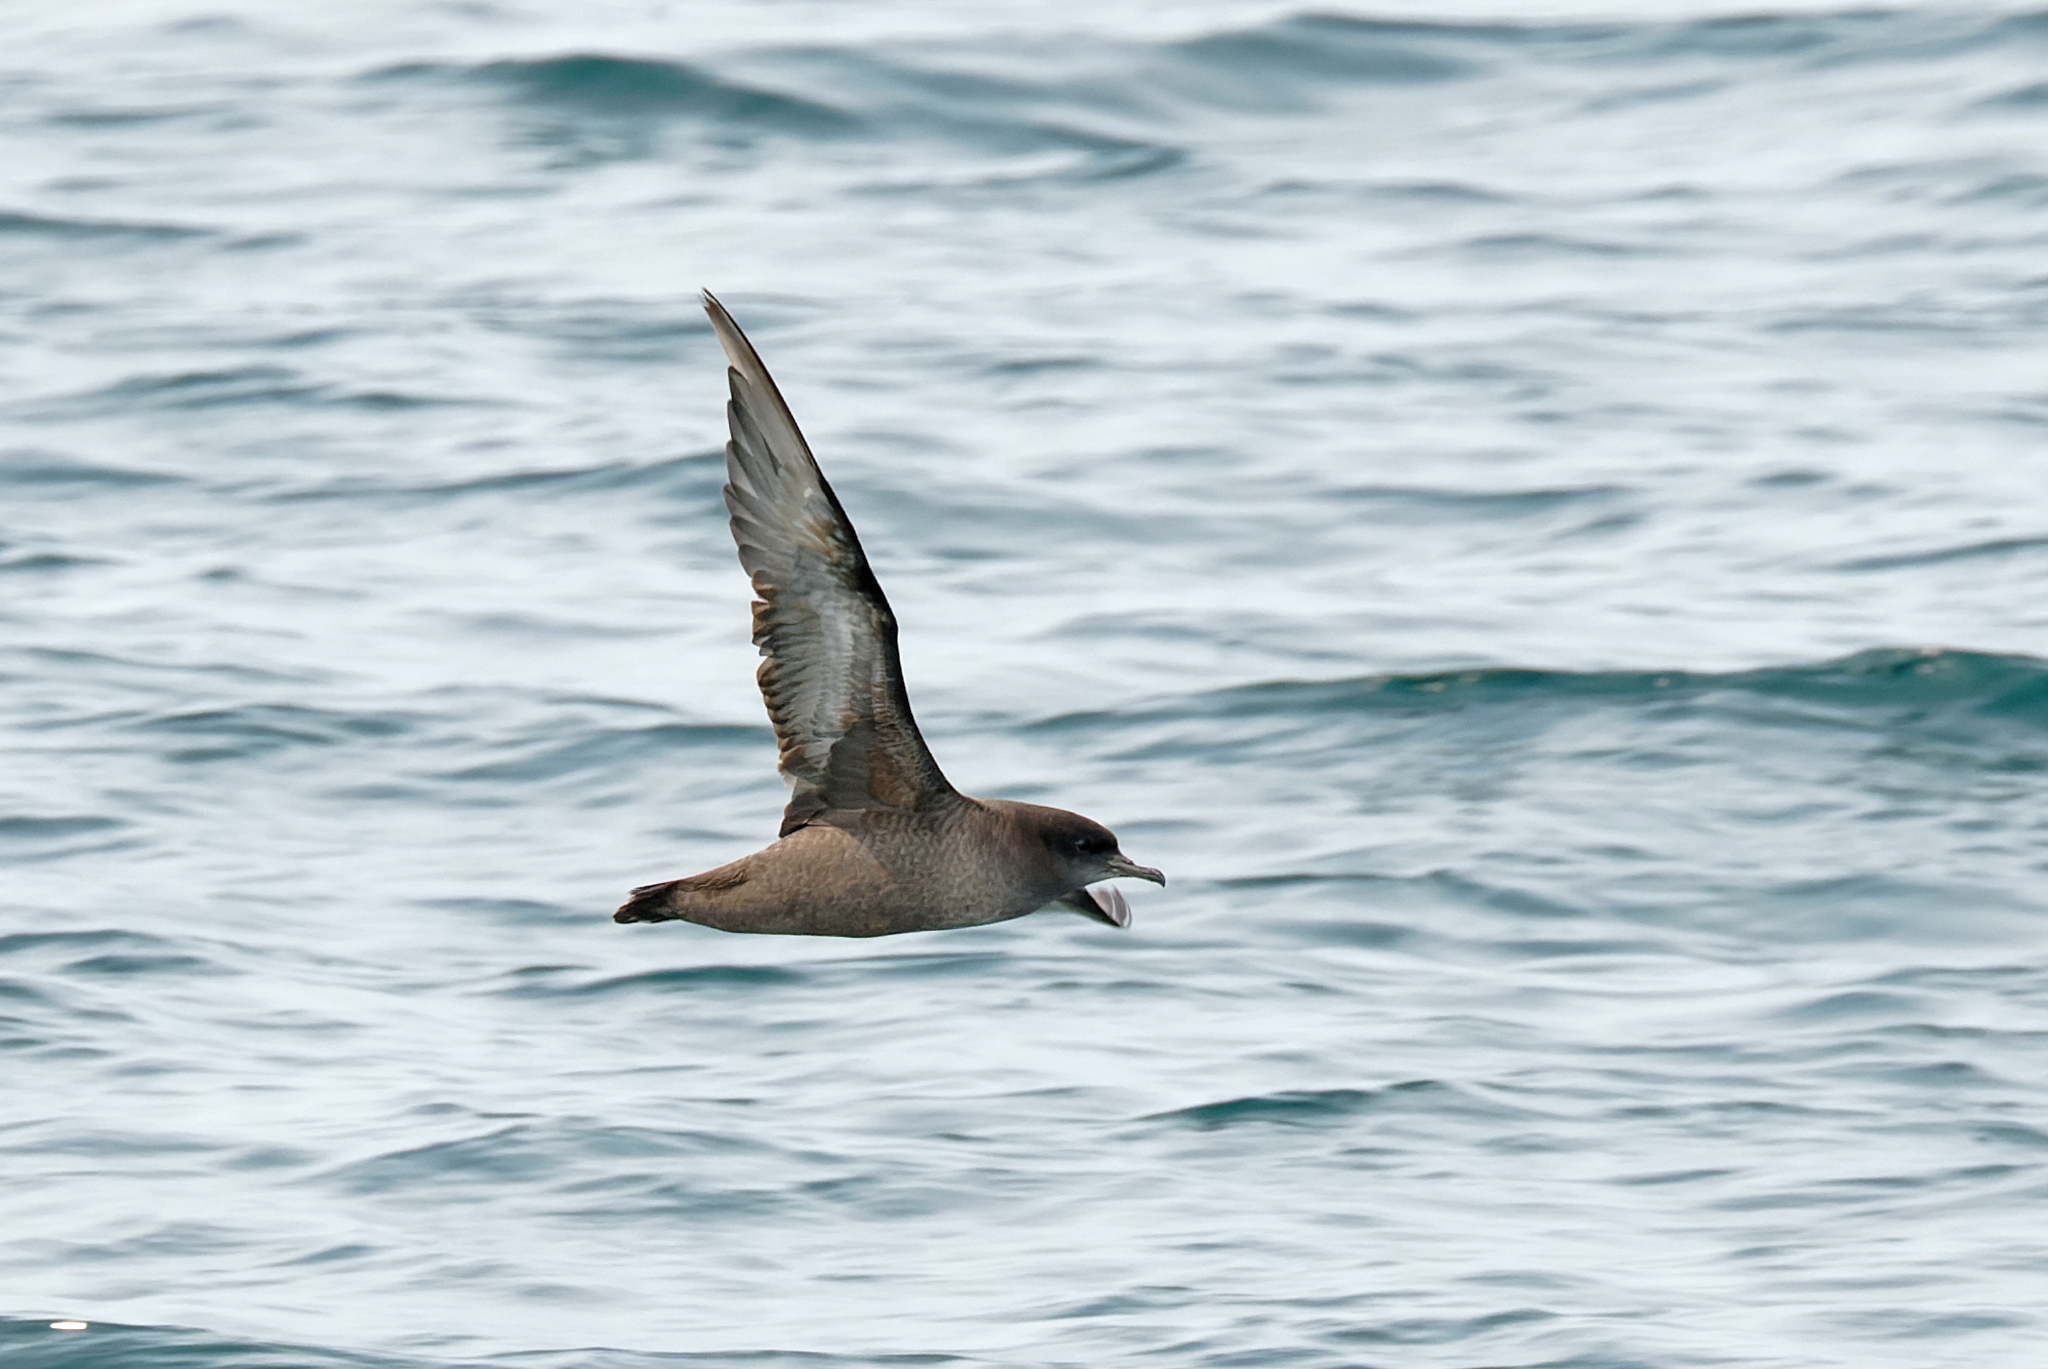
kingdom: Animalia
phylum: Chordata
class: Aves
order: Procellariiformes
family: Procellariidae
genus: Puffinus
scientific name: Puffinus tenuirostris
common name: Short-tailed shearwater
